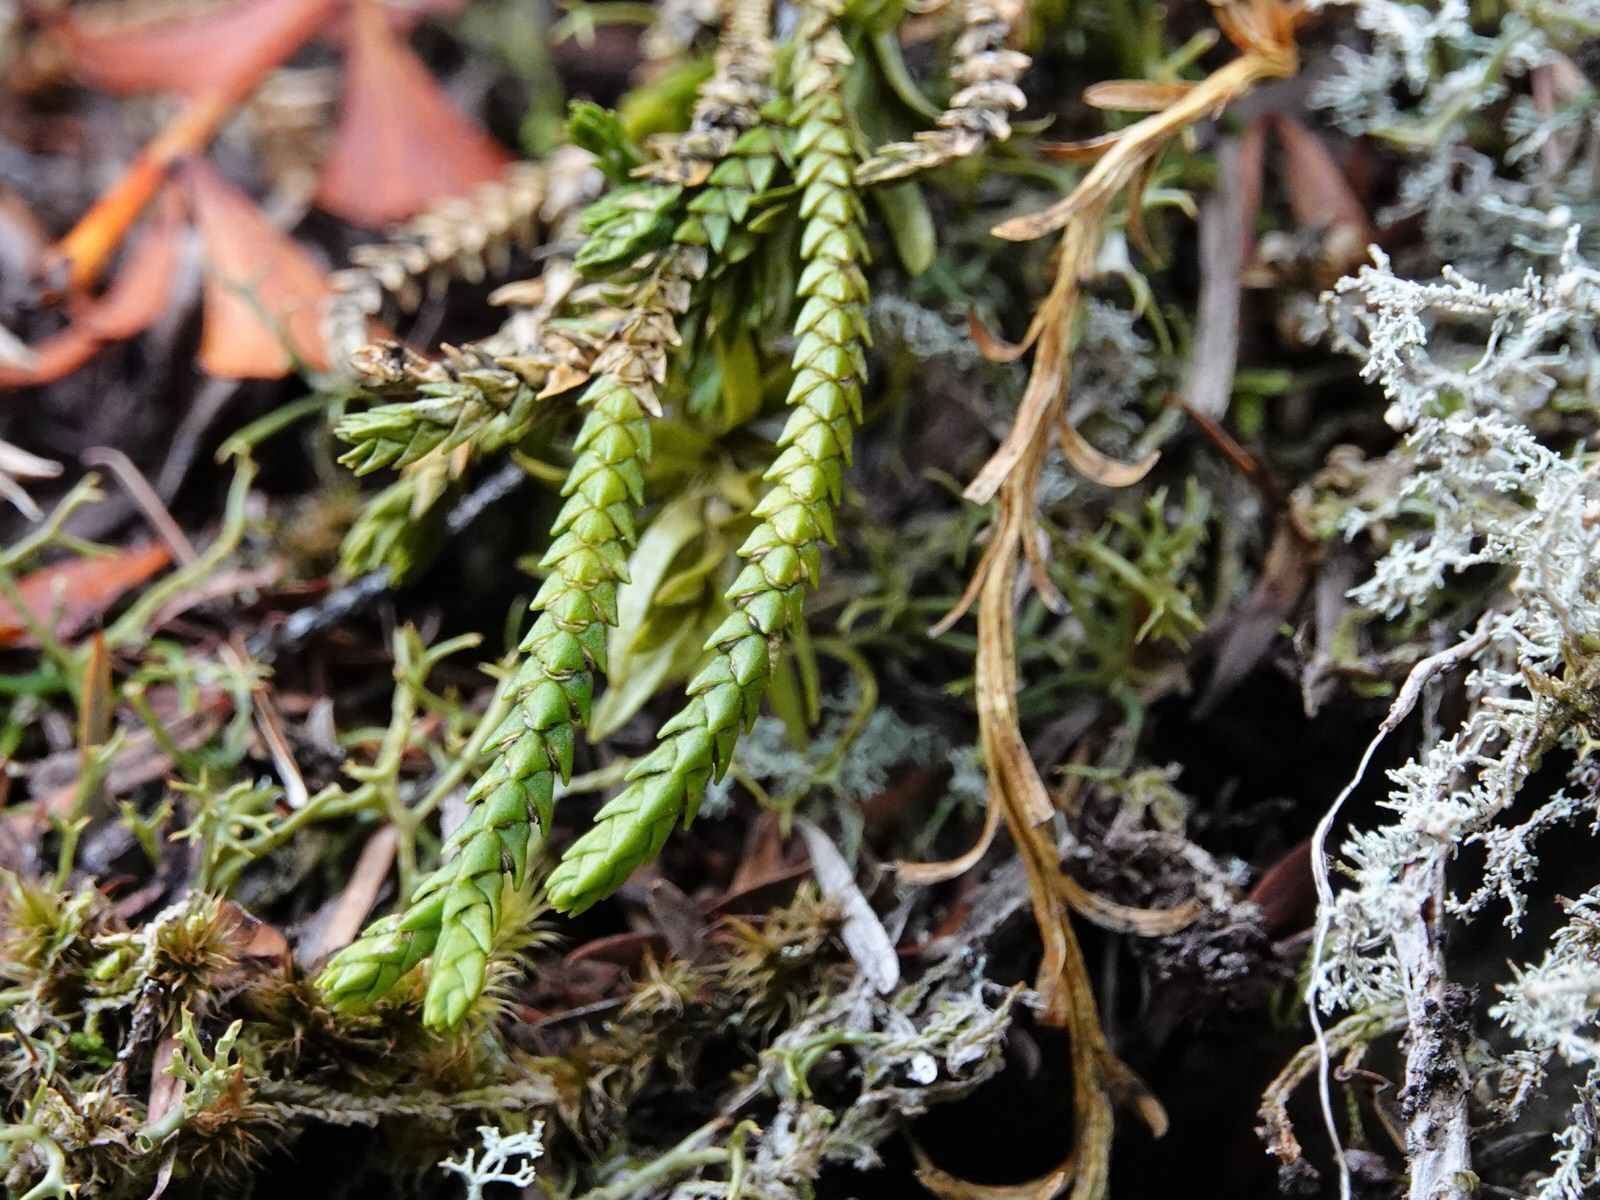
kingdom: Plantae
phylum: Tracheophyta
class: Lycopodiopsida
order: Lycopodiales
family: Lycopodiaceae
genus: Phlegmariurus
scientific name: Phlegmariurus billardierei
